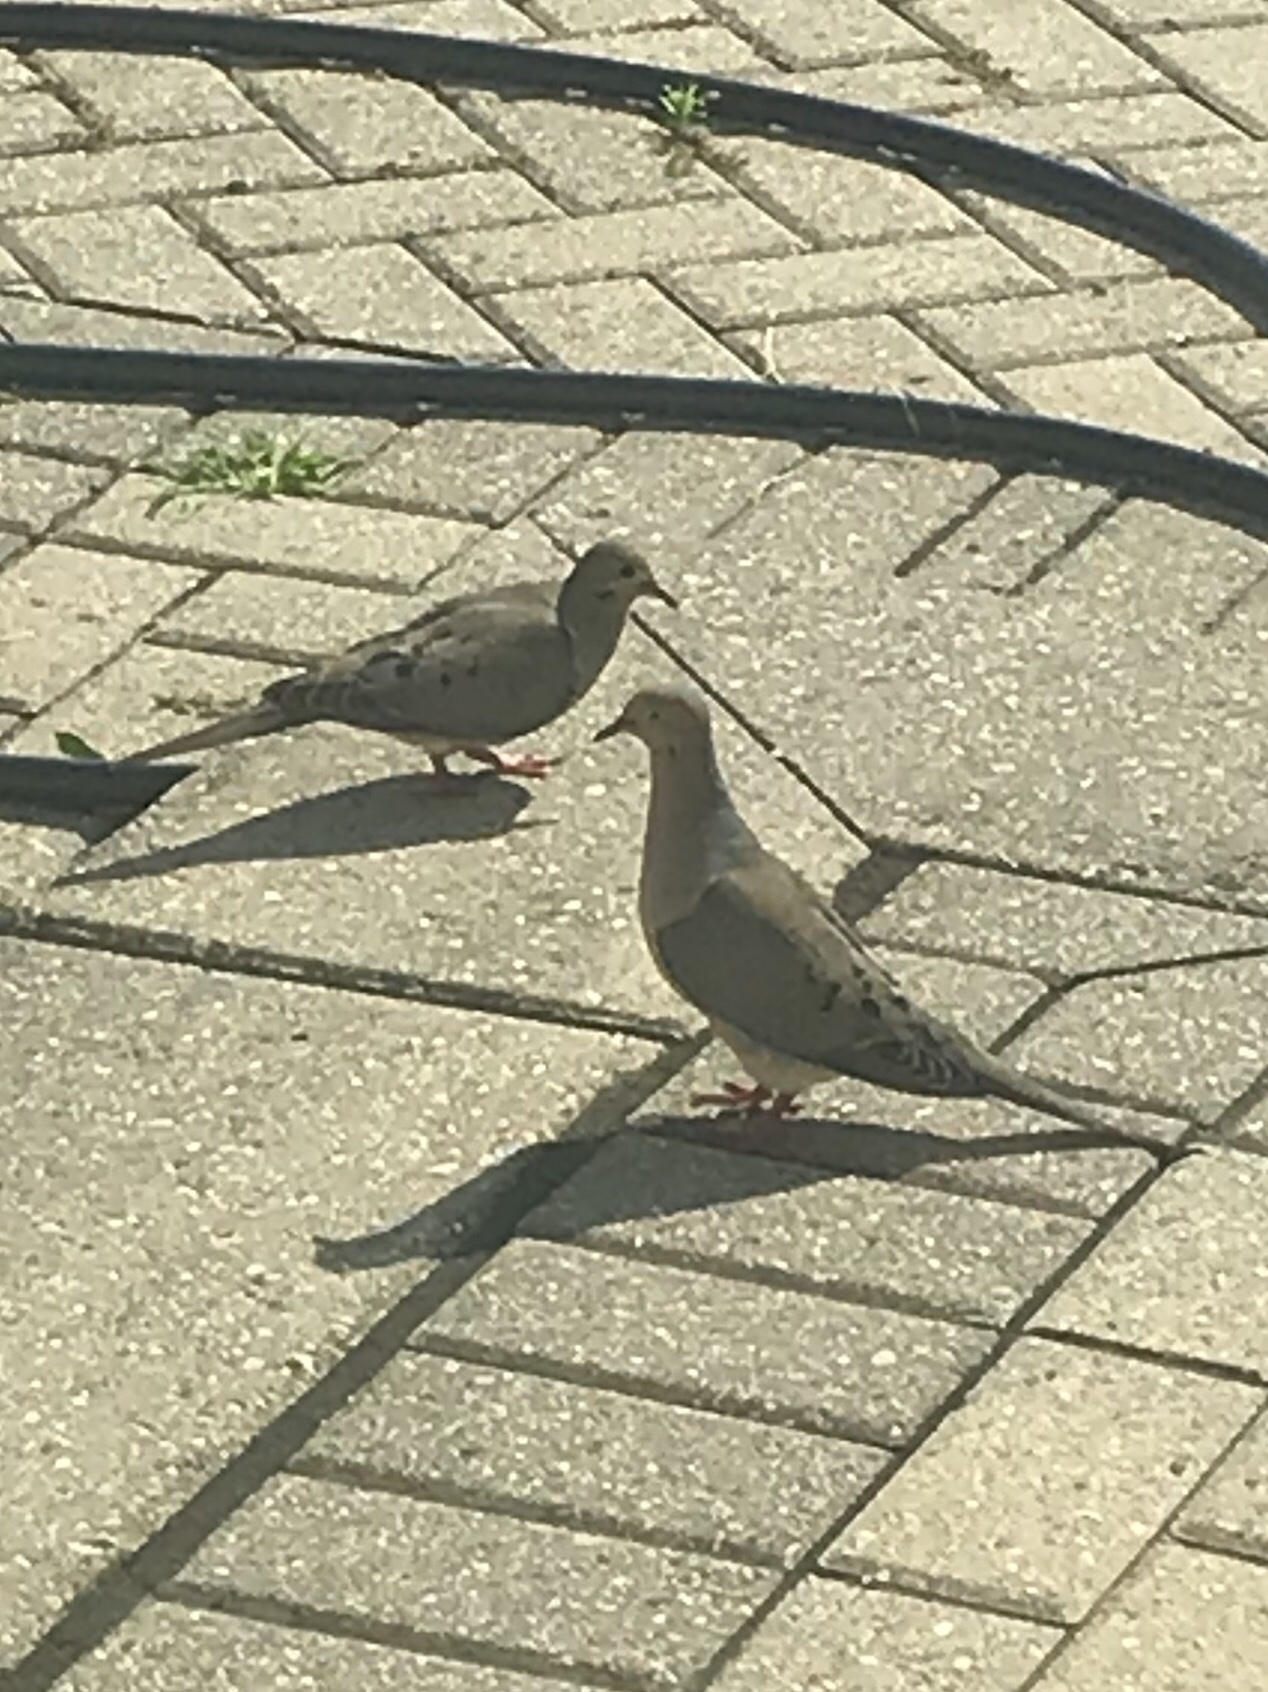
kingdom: Animalia
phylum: Chordata
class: Aves
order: Columbiformes
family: Columbidae
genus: Zenaida
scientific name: Zenaida macroura
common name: Mourning dove
